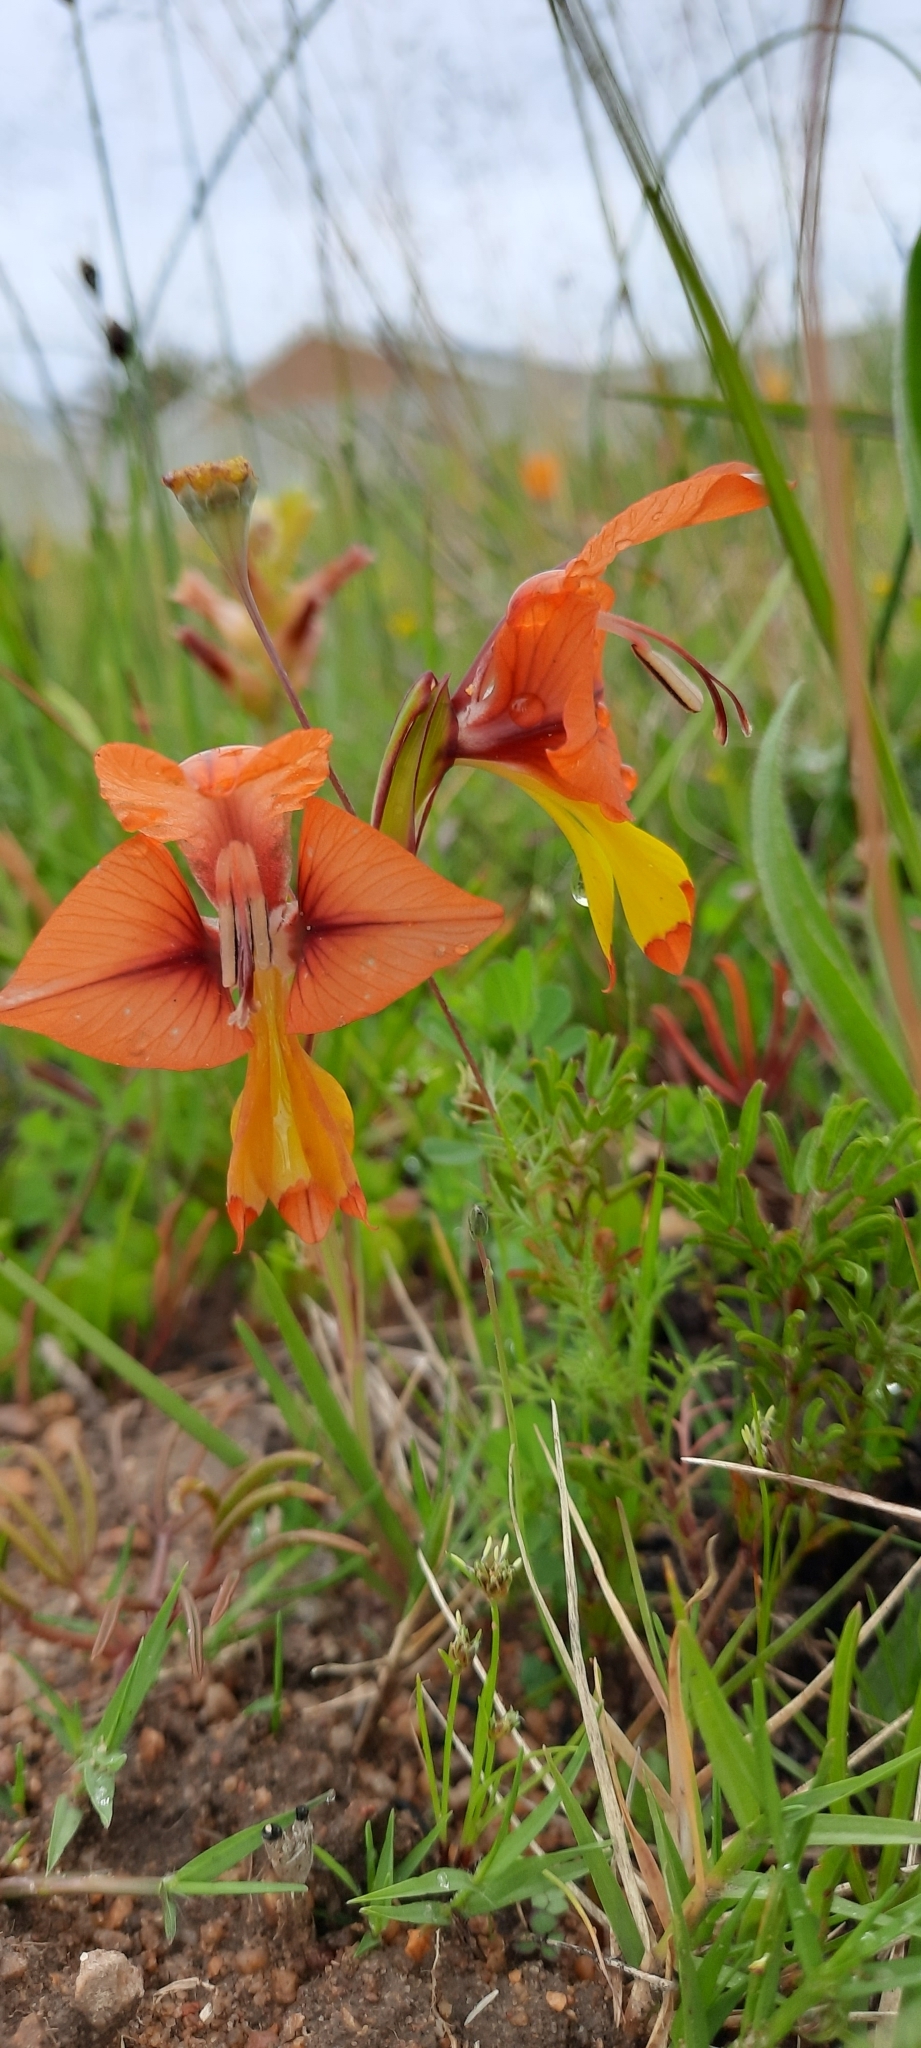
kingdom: Plantae
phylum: Tracheophyta
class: Liliopsida
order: Asparagales
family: Iridaceae
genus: Gladiolus
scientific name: Gladiolus alatus
